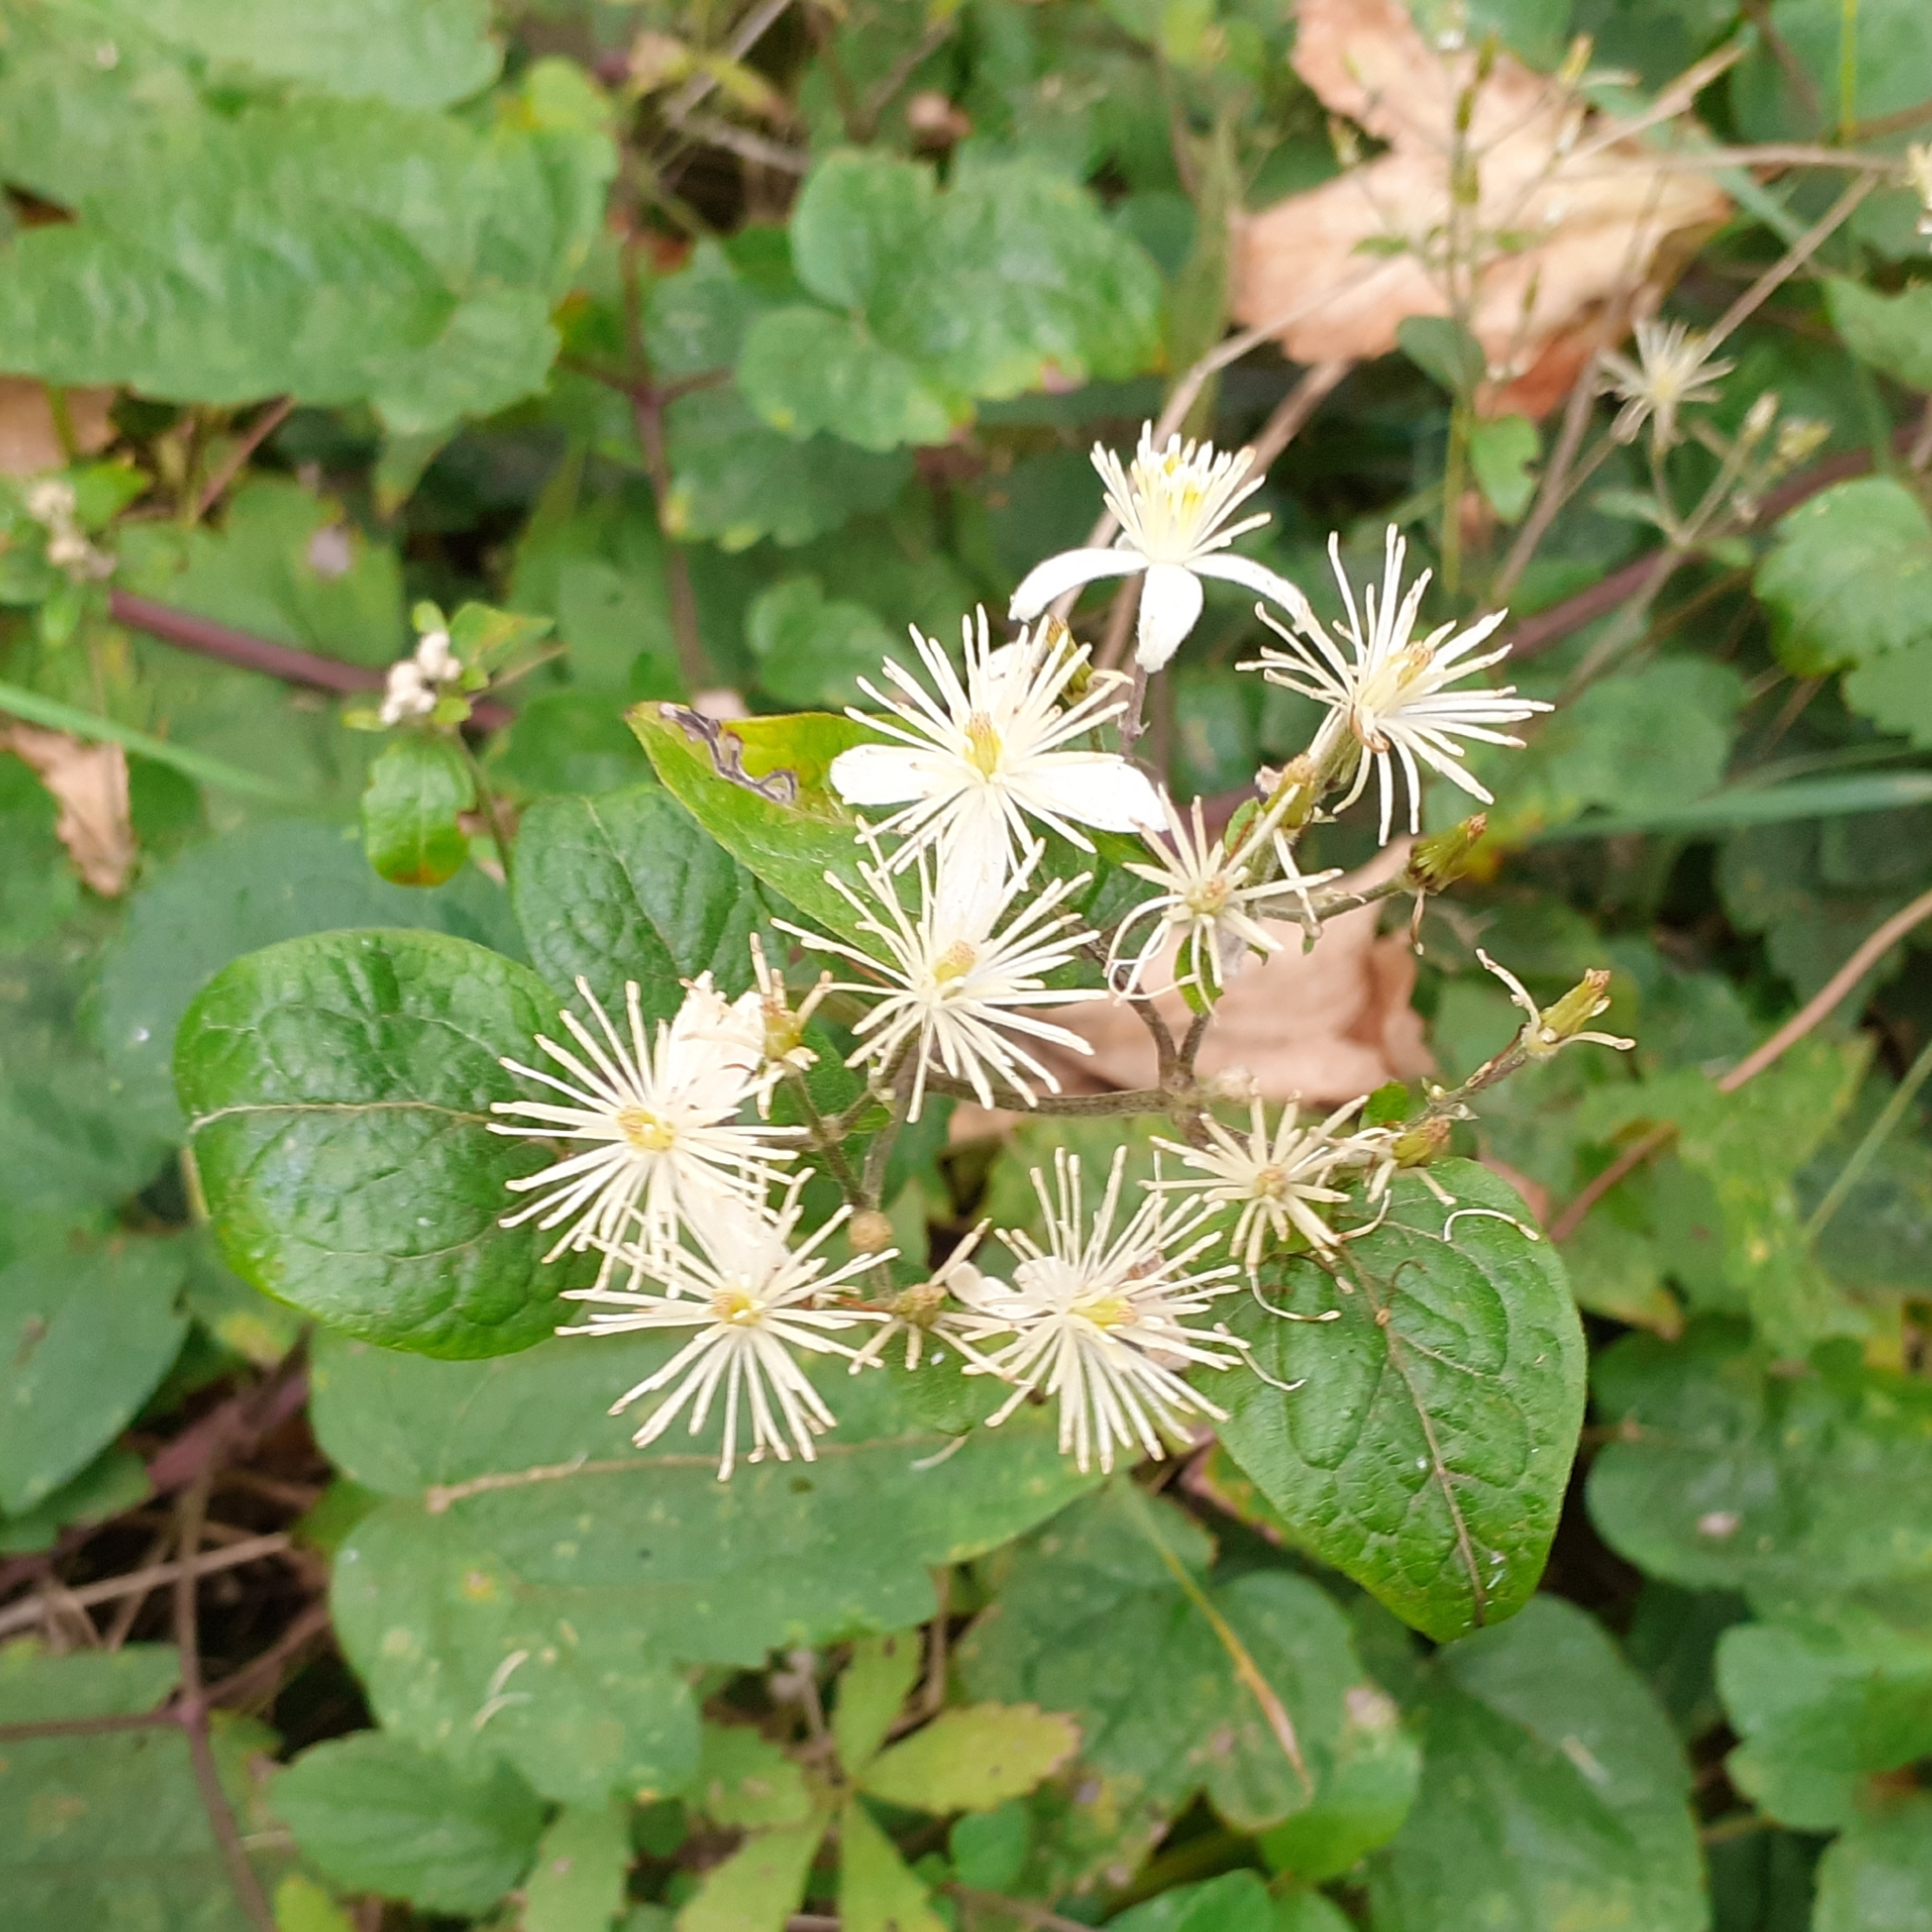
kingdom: Plantae
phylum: Tracheophyta
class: Magnoliopsida
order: Ranunculales
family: Ranunculaceae
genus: Clematis
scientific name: Clematis vitalba
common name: Evergreen clematis
